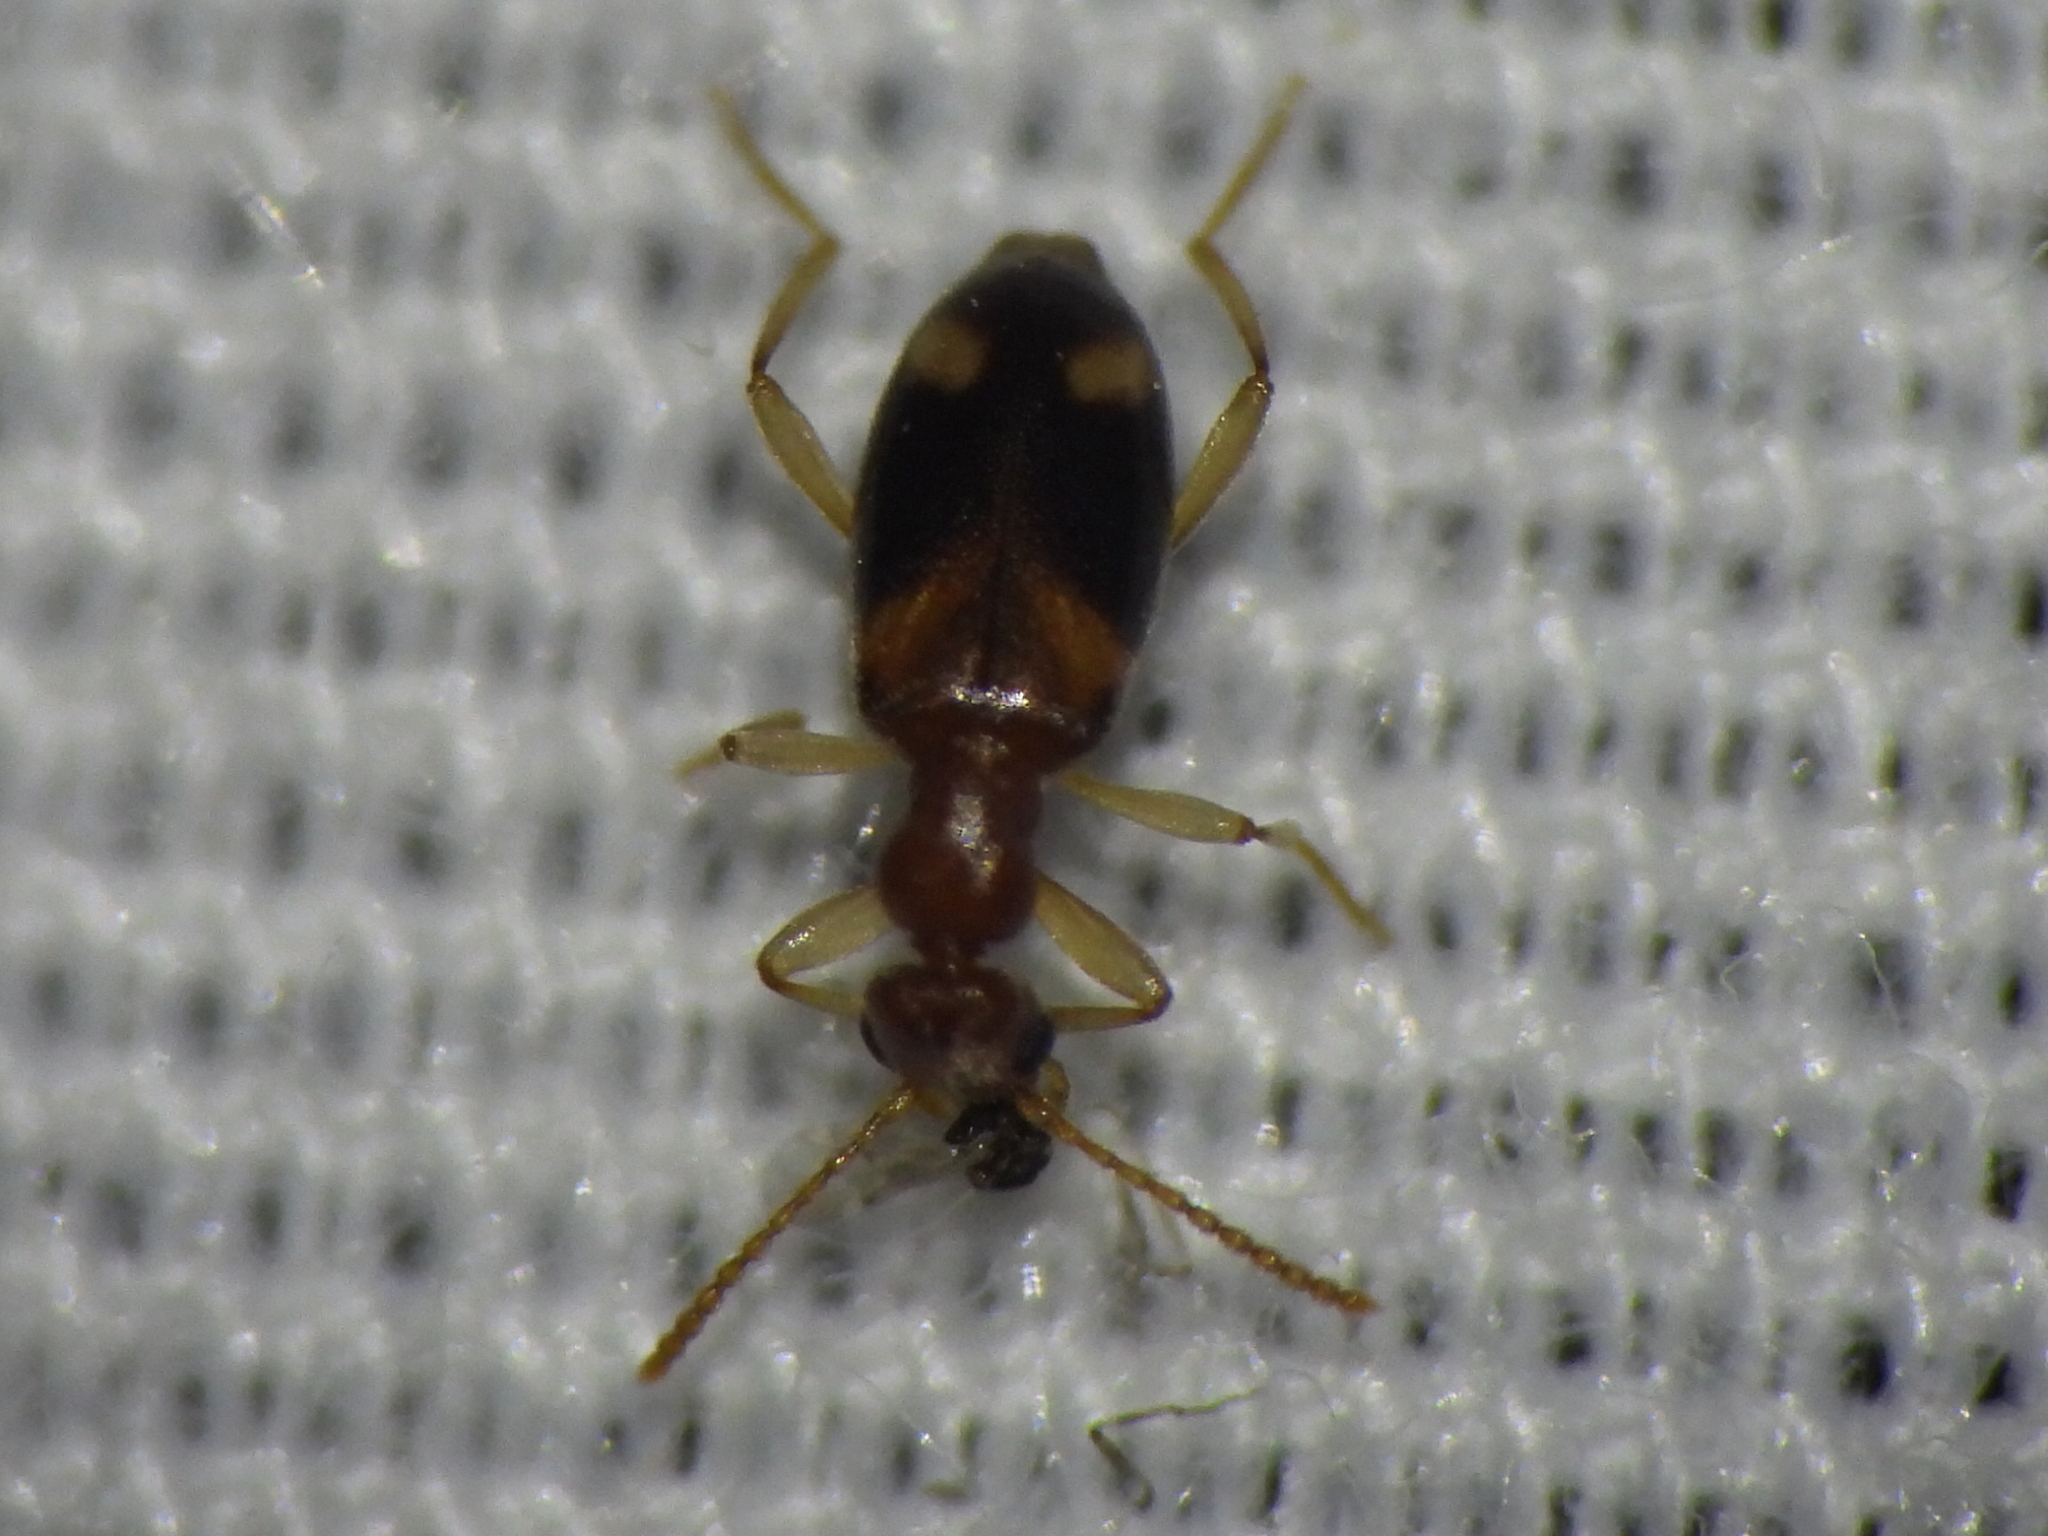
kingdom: Animalia
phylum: Arthropoda
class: Insecta
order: Coleoptera
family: Anthicidae
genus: Stricticollis
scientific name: Stricticollis tobias
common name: Two-dotted ant-like flower beetle
